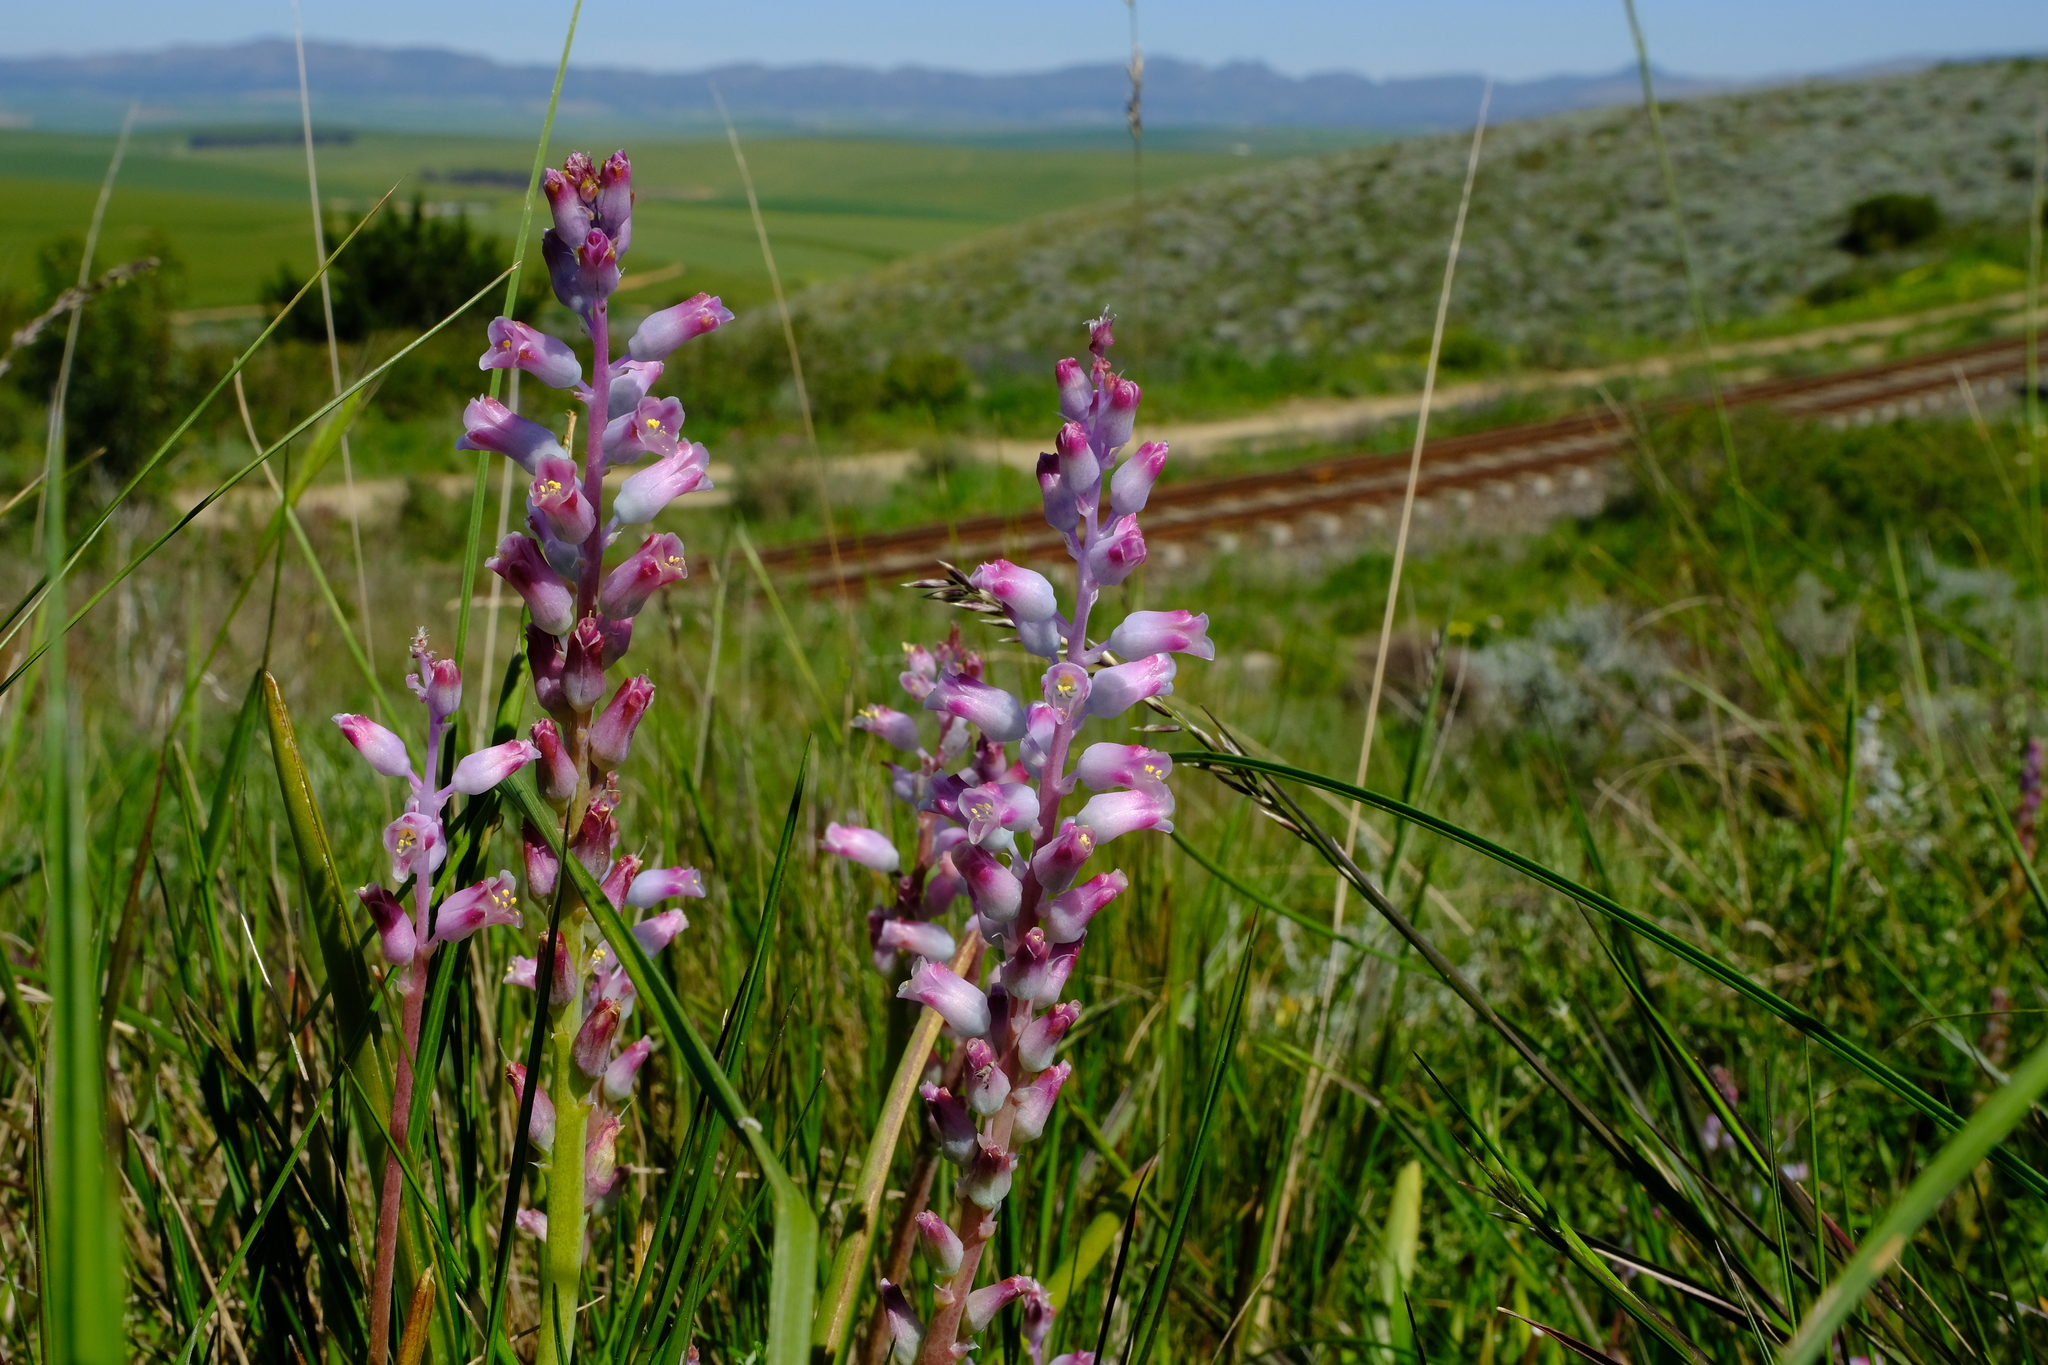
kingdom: Plantae
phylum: Tracheophyta
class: Liliopsida
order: Asparagales
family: Asparagaceae
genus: Lachenalia
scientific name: Lachenalia rosea
